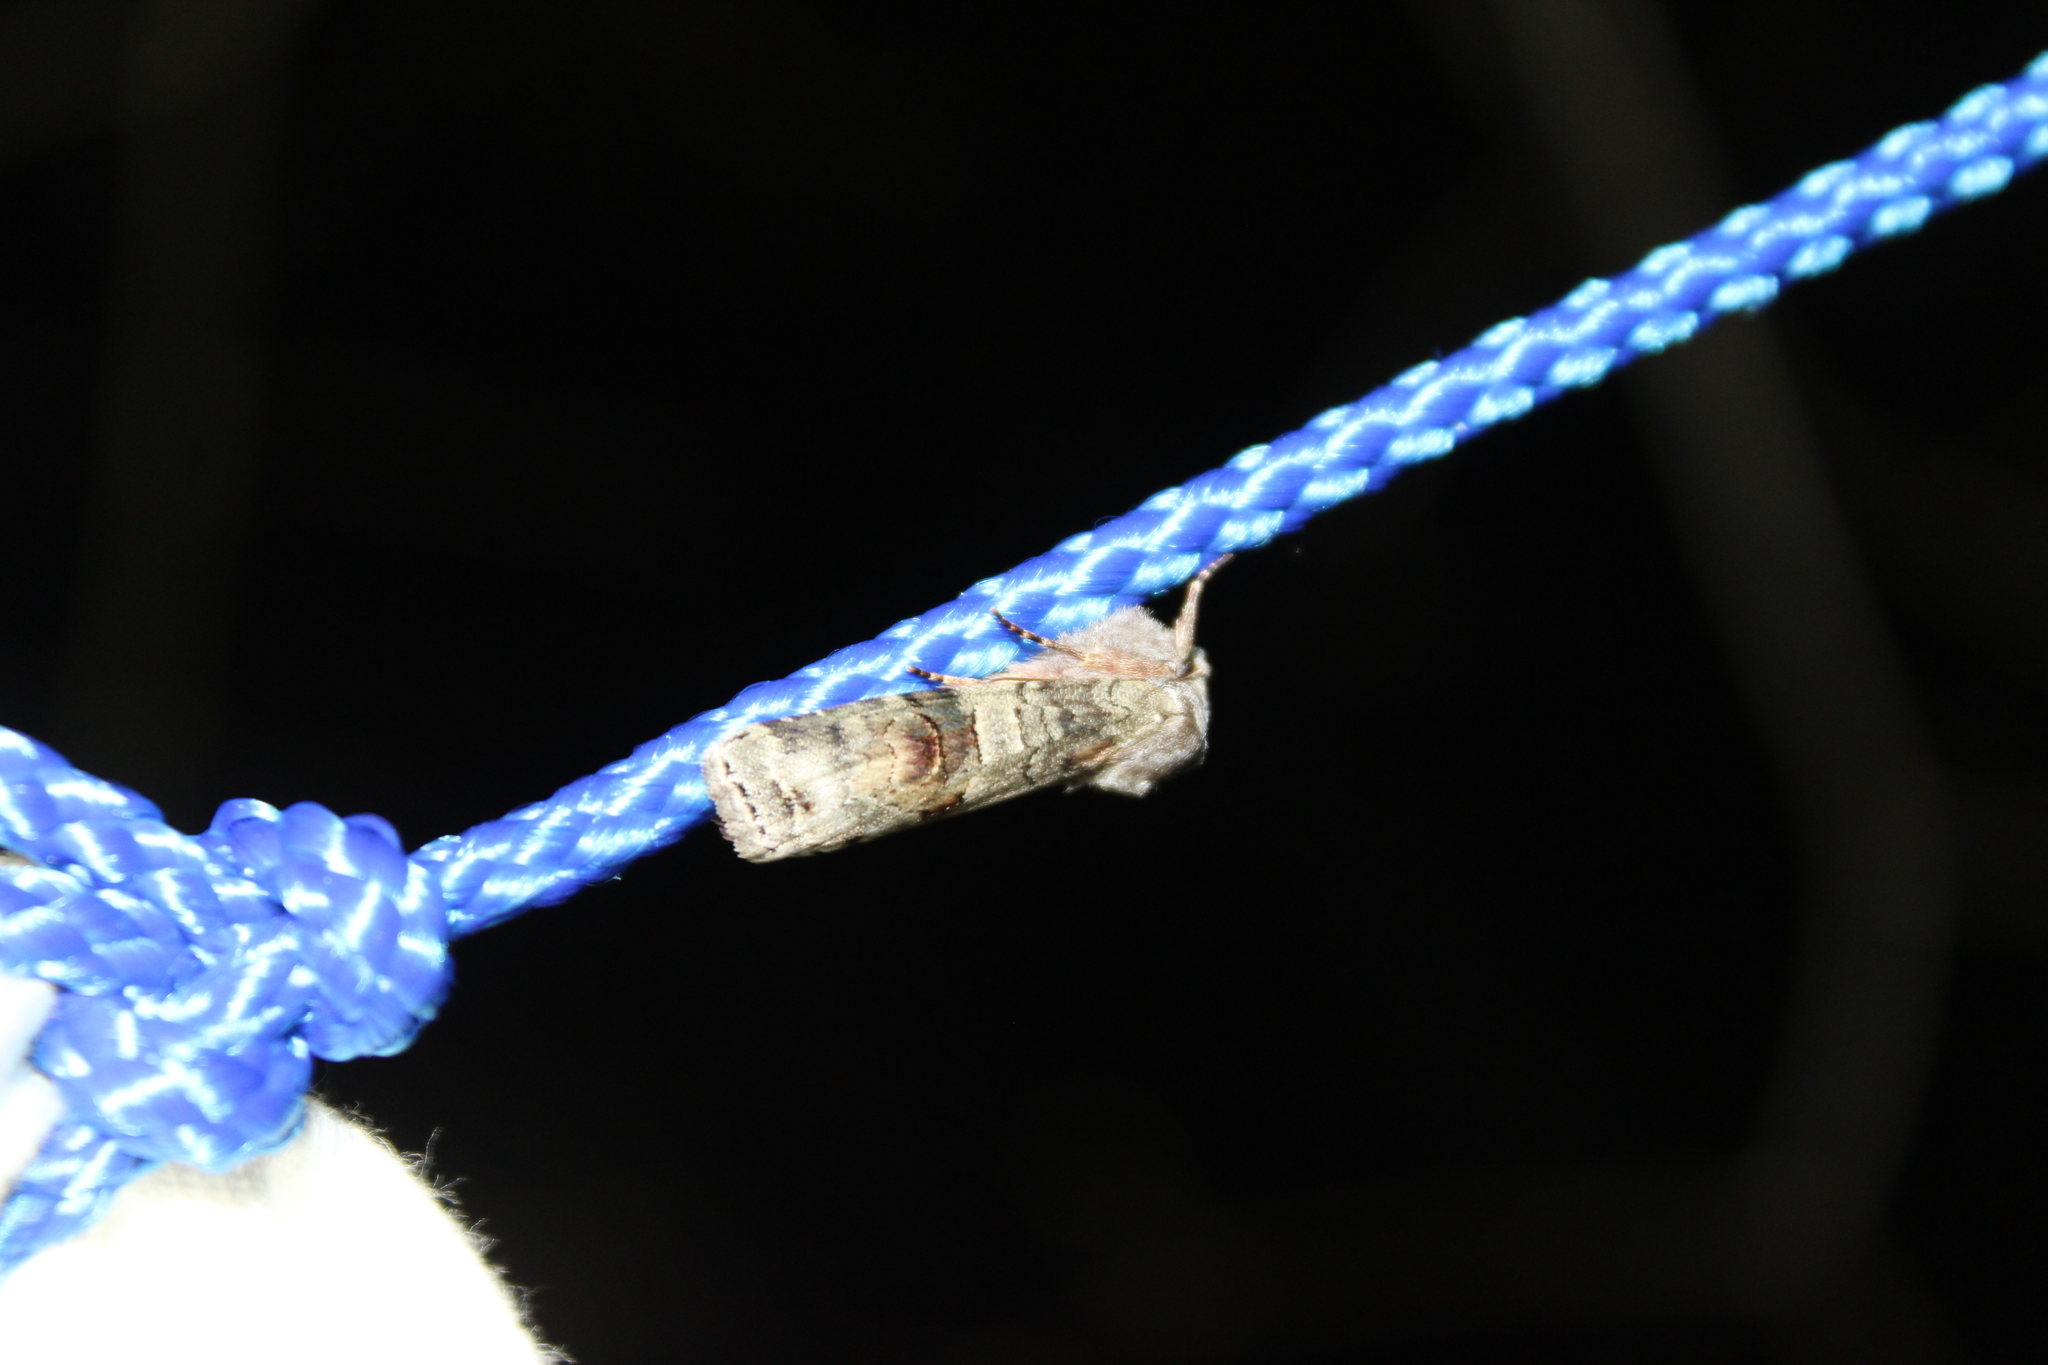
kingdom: Animalia
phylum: Arthropoda
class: Insecta
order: Lepidoptera
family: Noctuidae
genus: Egira
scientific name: Egira alternans
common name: Alternate woodling
